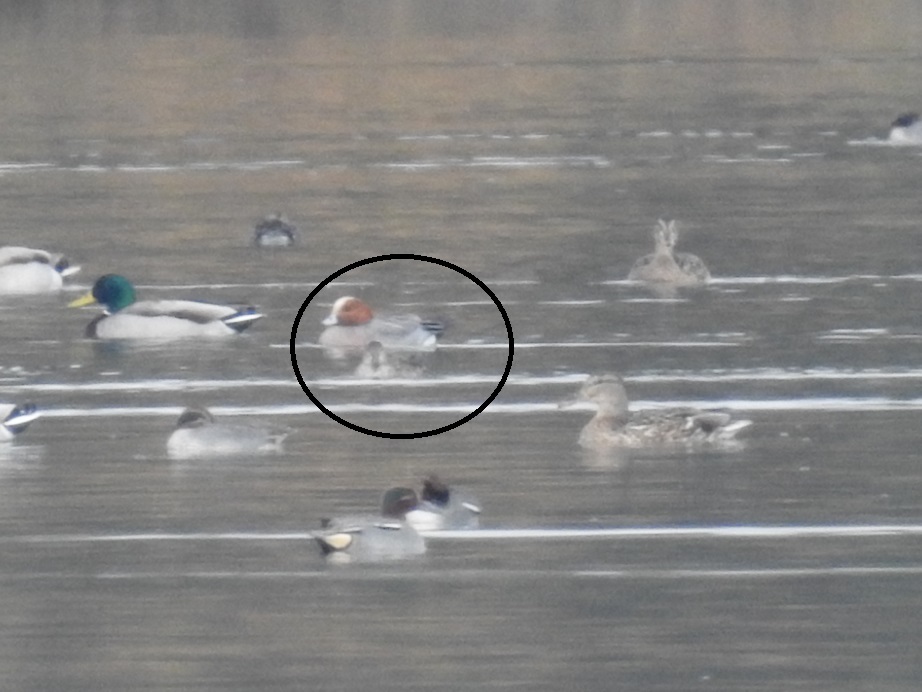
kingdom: Animalia
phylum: Chordata
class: Aves
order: Anseriformes
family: Anatidae
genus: Mareca
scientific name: Mareca penelope
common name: Eurasian wigeon
